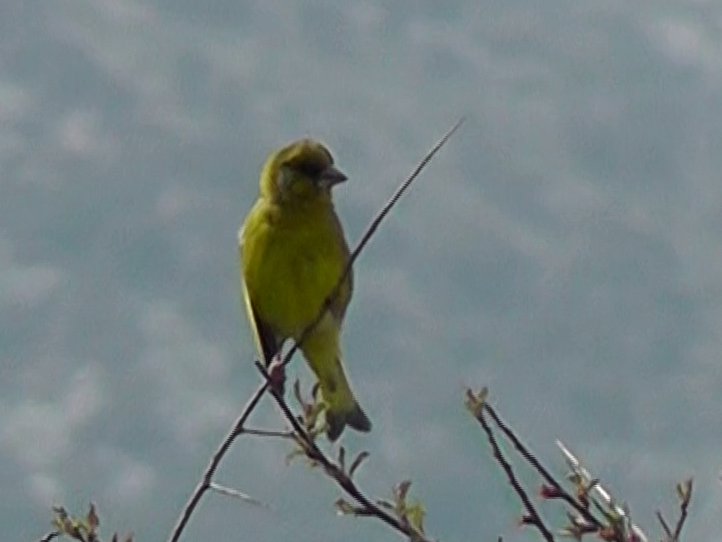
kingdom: Plantae
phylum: Tracheophyta
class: Liliopsida
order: Poales
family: Poaceae
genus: Chloris
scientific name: Chloris chloris
